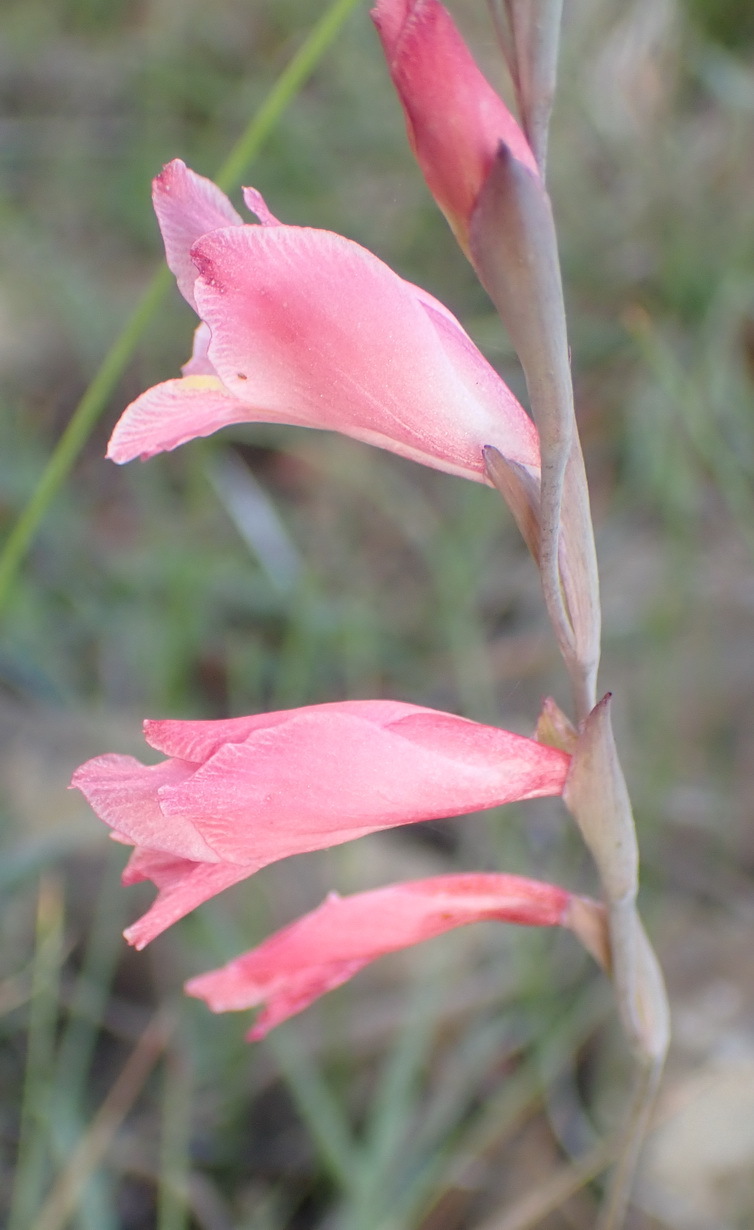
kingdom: Plantae
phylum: Tracheophyta
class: Liliopsida
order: Asparagales
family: Iridaceae
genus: Gladiolus
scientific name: Gladiolus brevifolius
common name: March pypie
